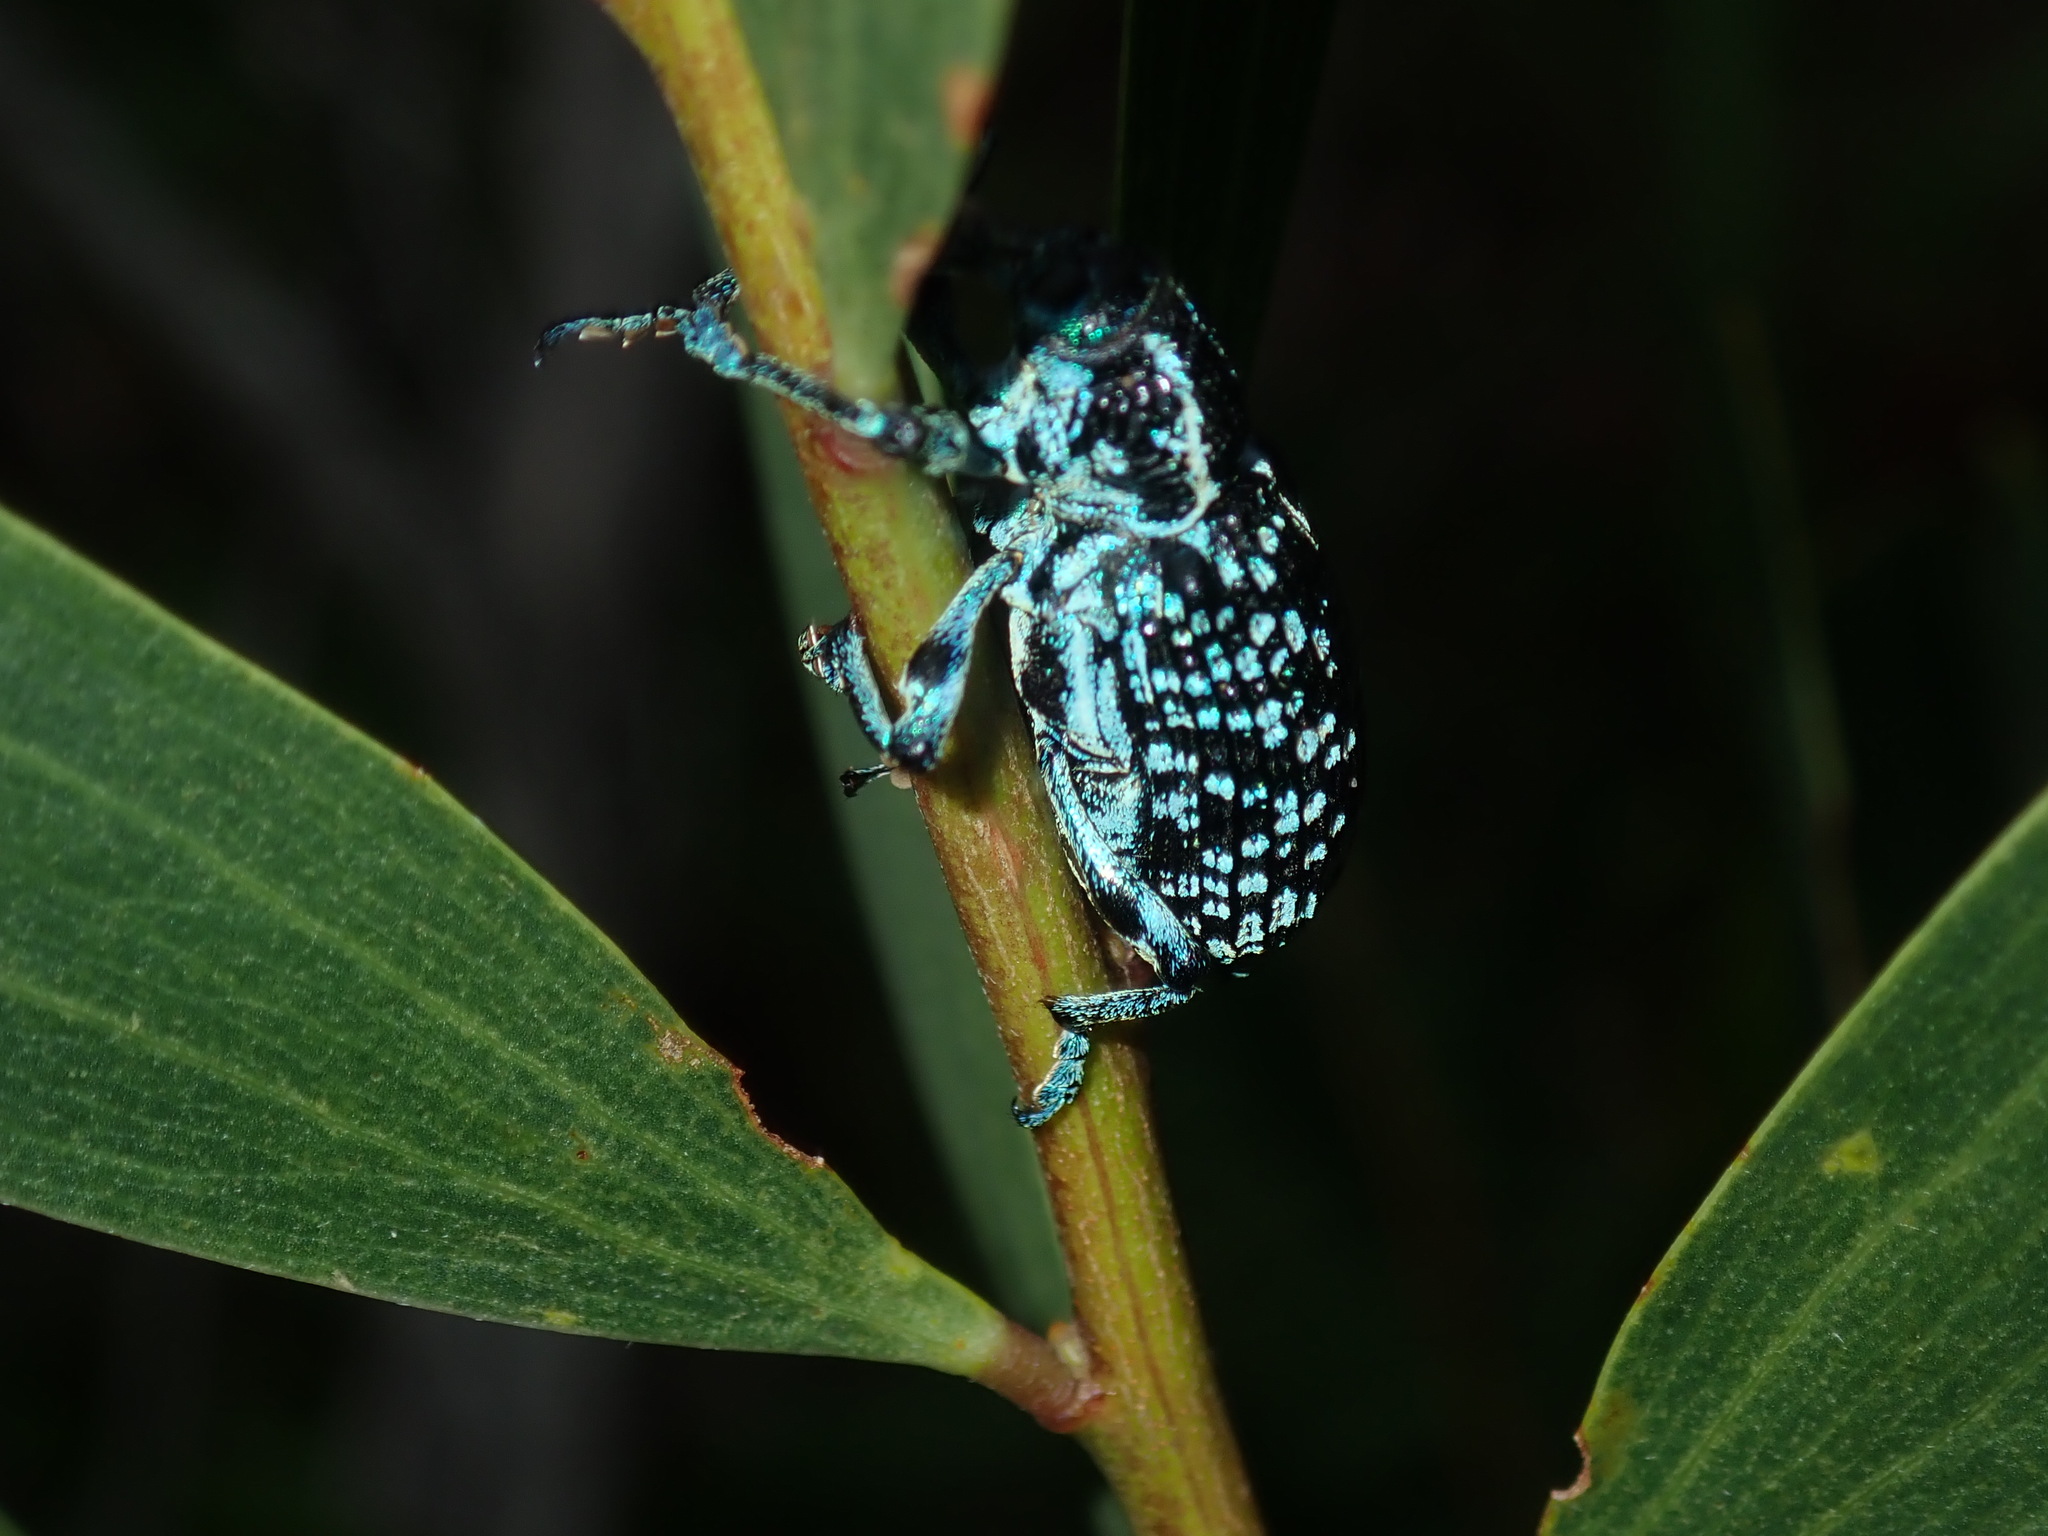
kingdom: Animalia
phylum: Arthropoda
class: Insecta
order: Coleoptera
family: Curculionidae
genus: Chrysolopus
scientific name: Chrysolopus spectabilis
